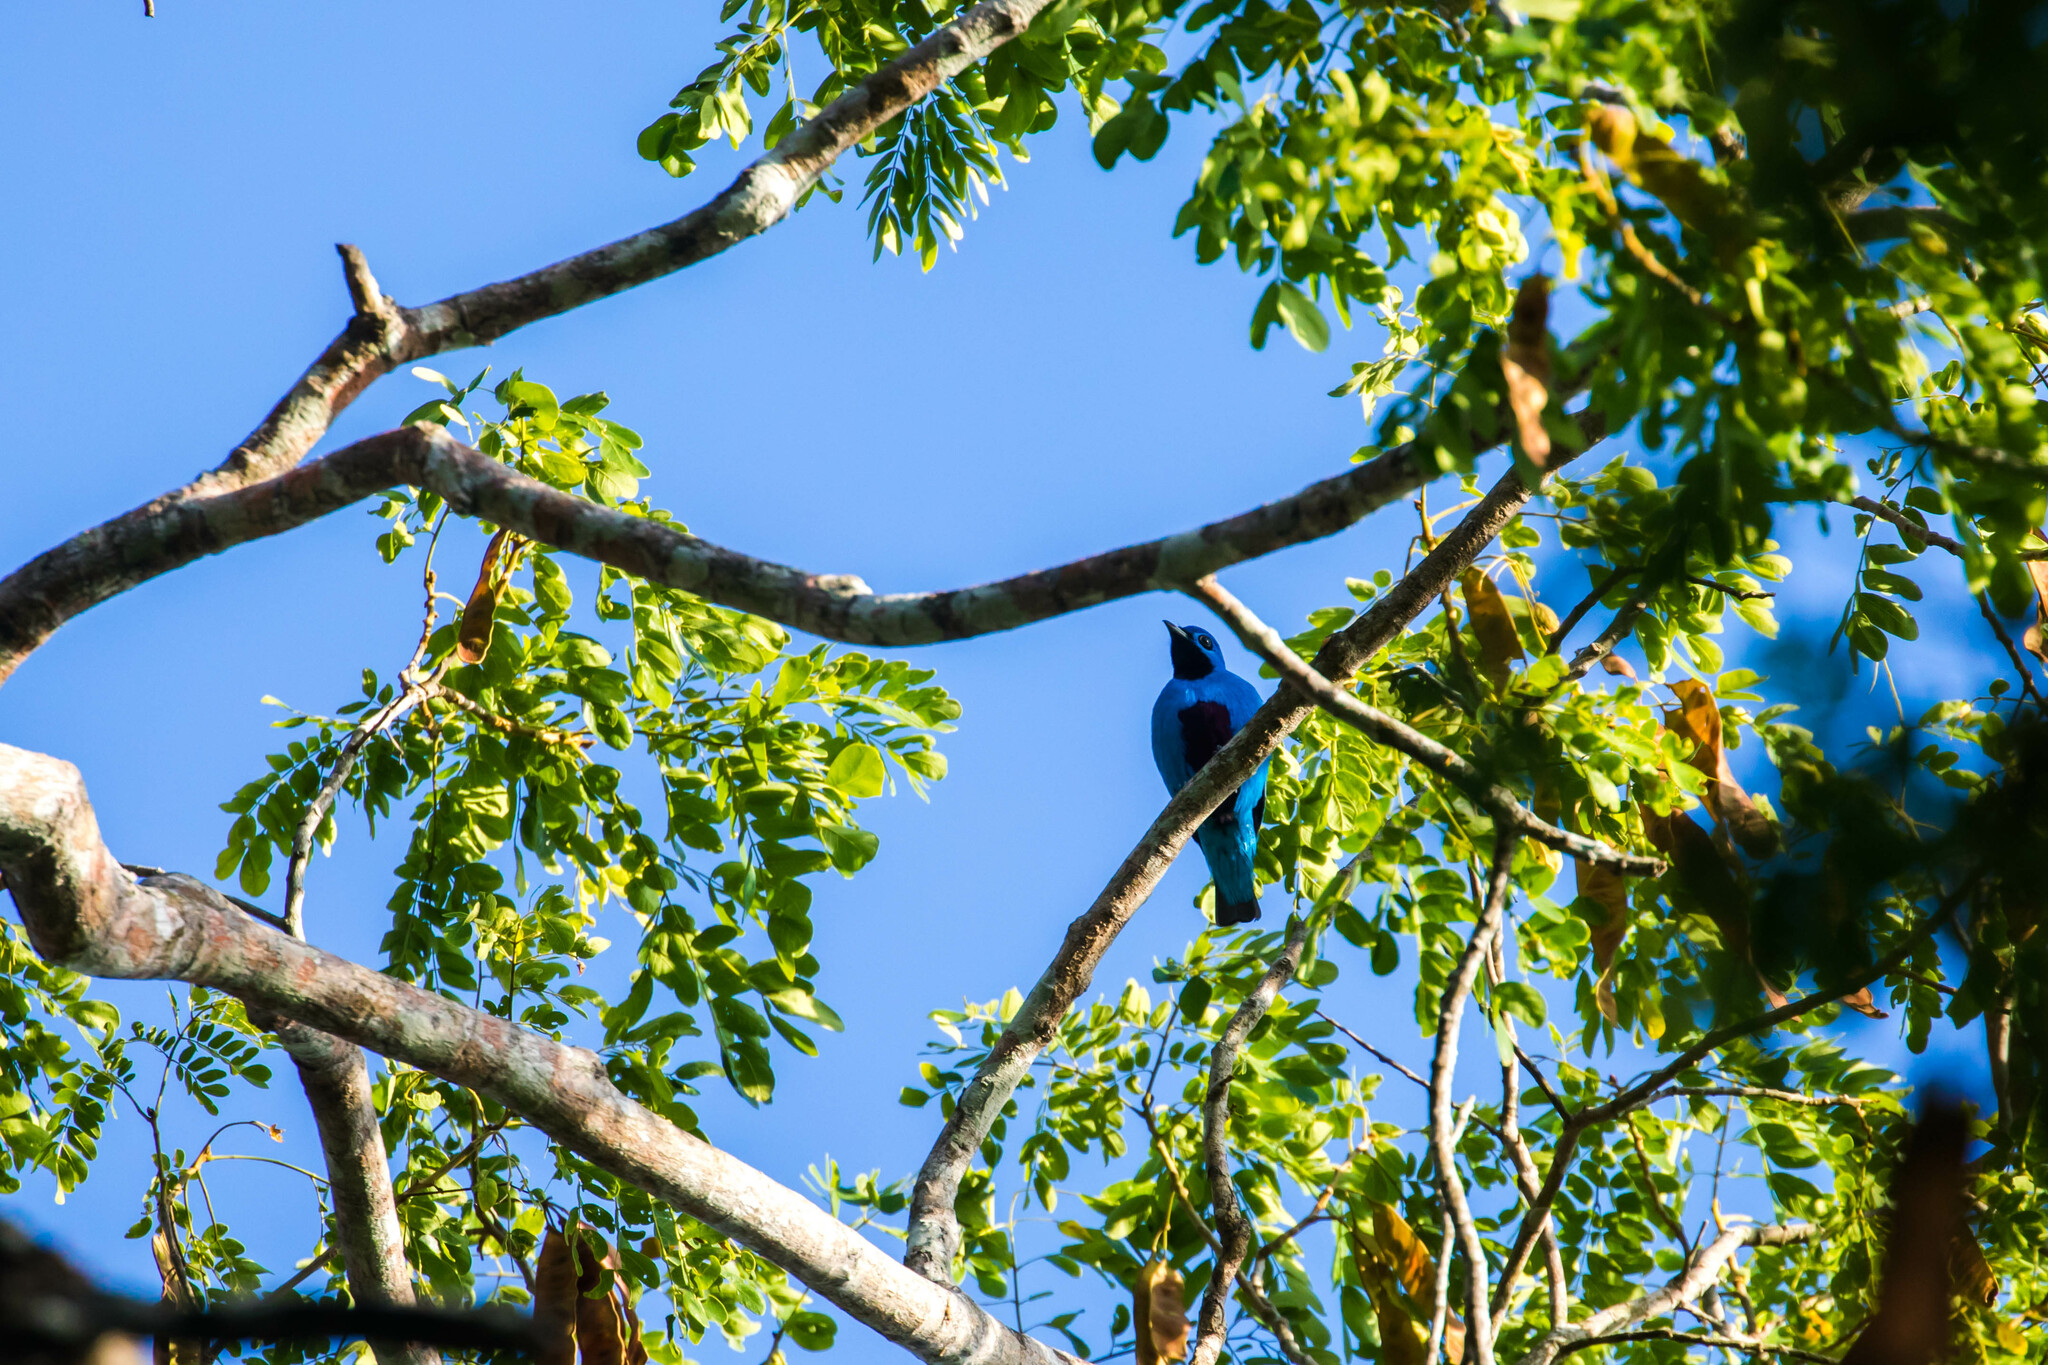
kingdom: Animalia
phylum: Chordata
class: Aves
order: Passeriformes
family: Cotingidae
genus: Cotinga
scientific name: Cotinga nattererii
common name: Blue cotinga
